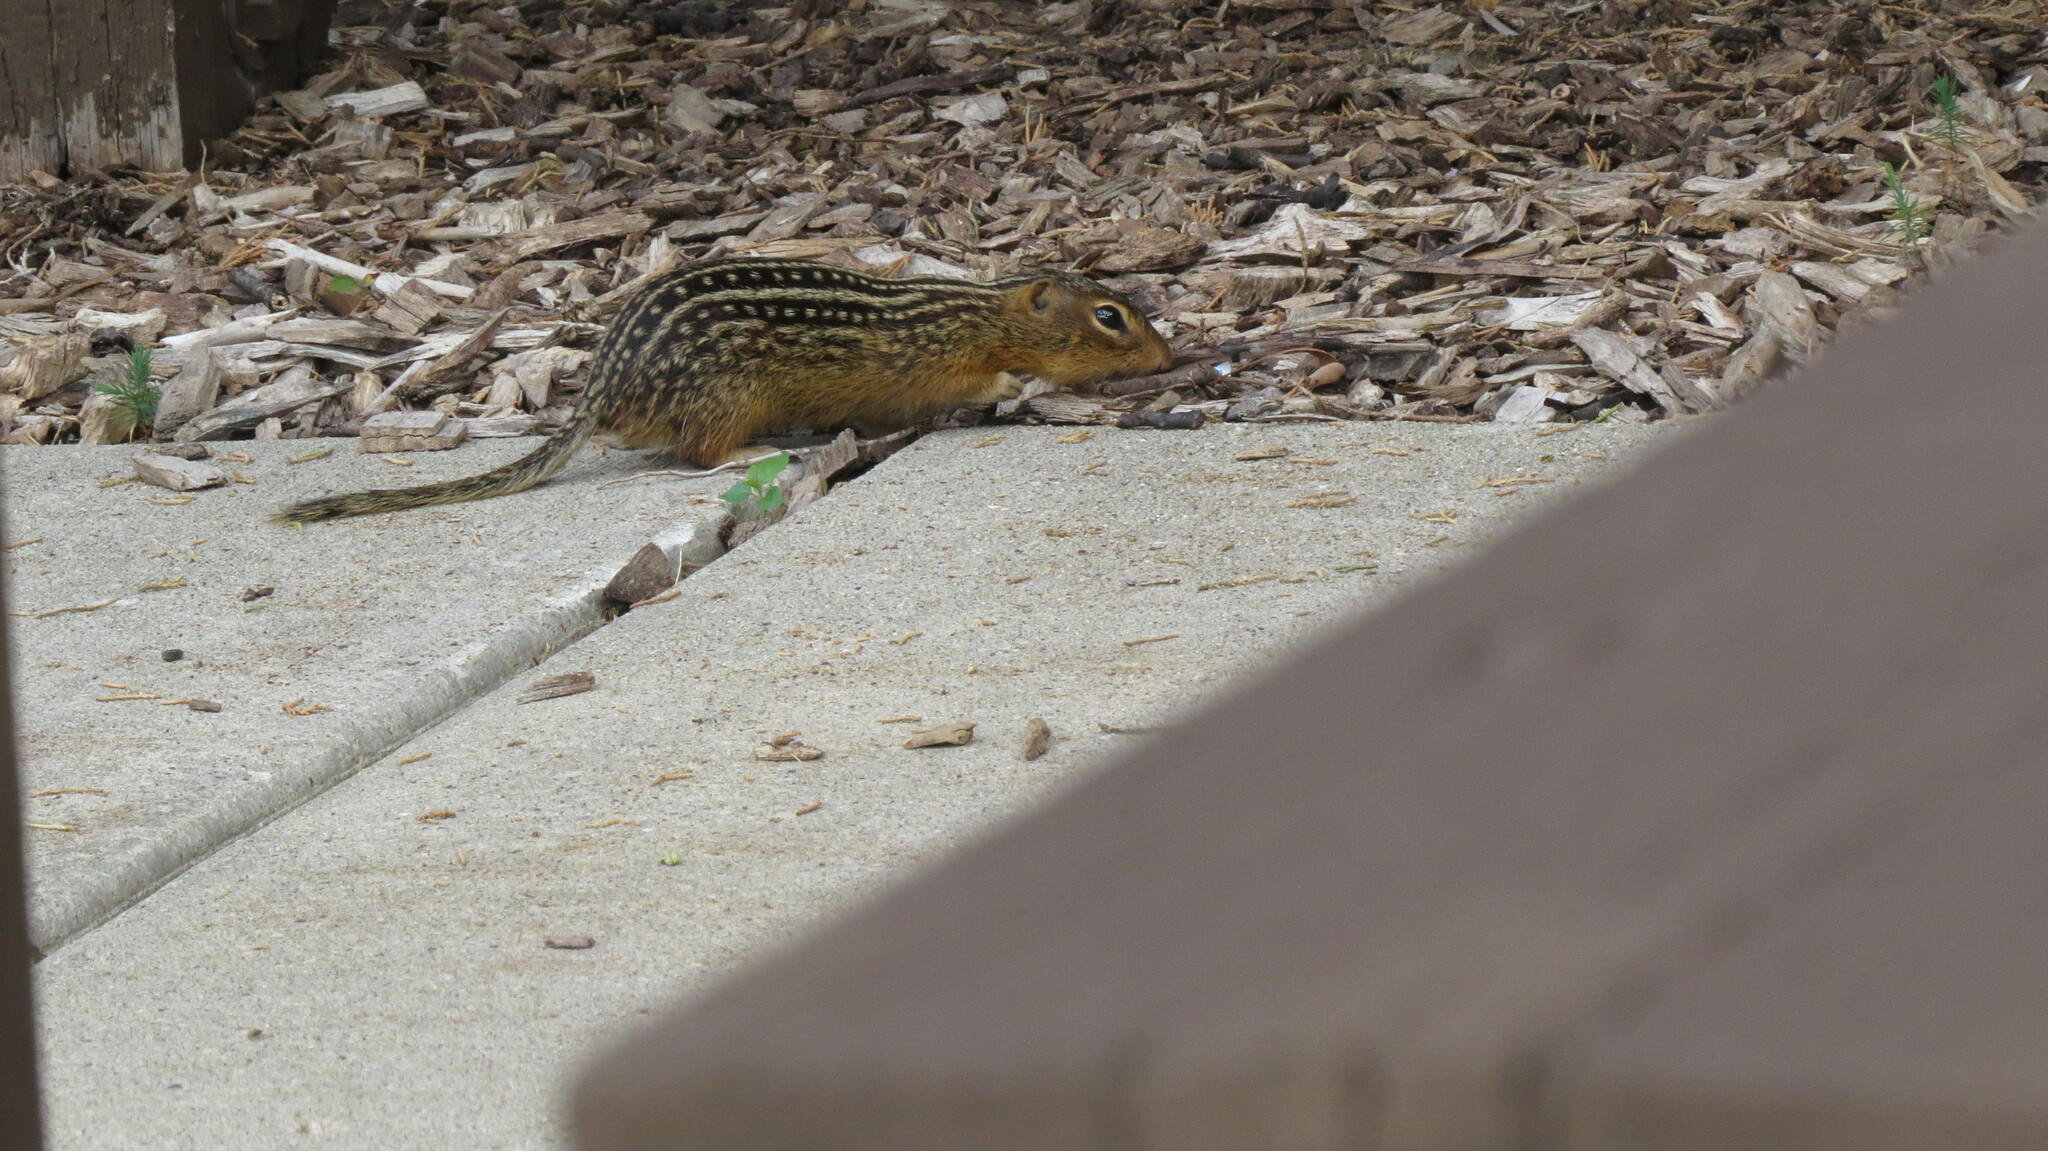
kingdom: Animalia
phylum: Chordata
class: Mammalia
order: Rodentia
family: Sciuridae
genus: Ictidomys
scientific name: Ictidomys tridecemlineatus
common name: Thirteen-lined ground squirrel
